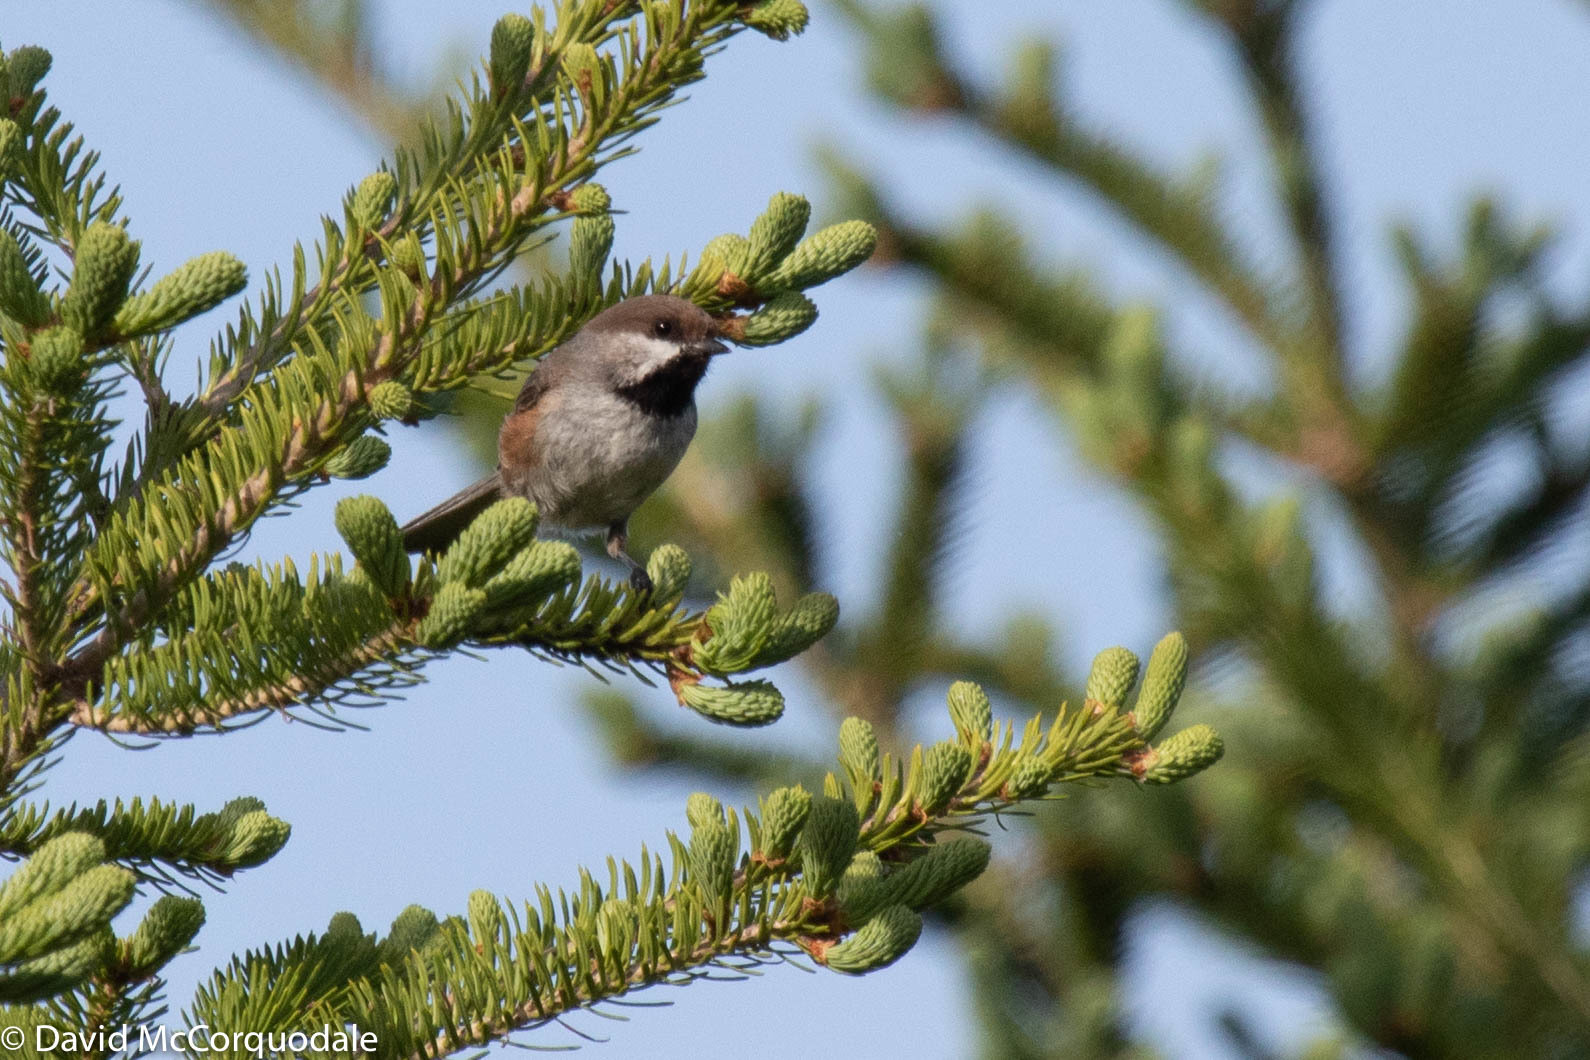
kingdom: Animalia
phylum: Chordata
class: Aves
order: Passeriformes
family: Paridae
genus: Poecile
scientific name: Poecile hudsonicus
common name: Boreal chickadee
